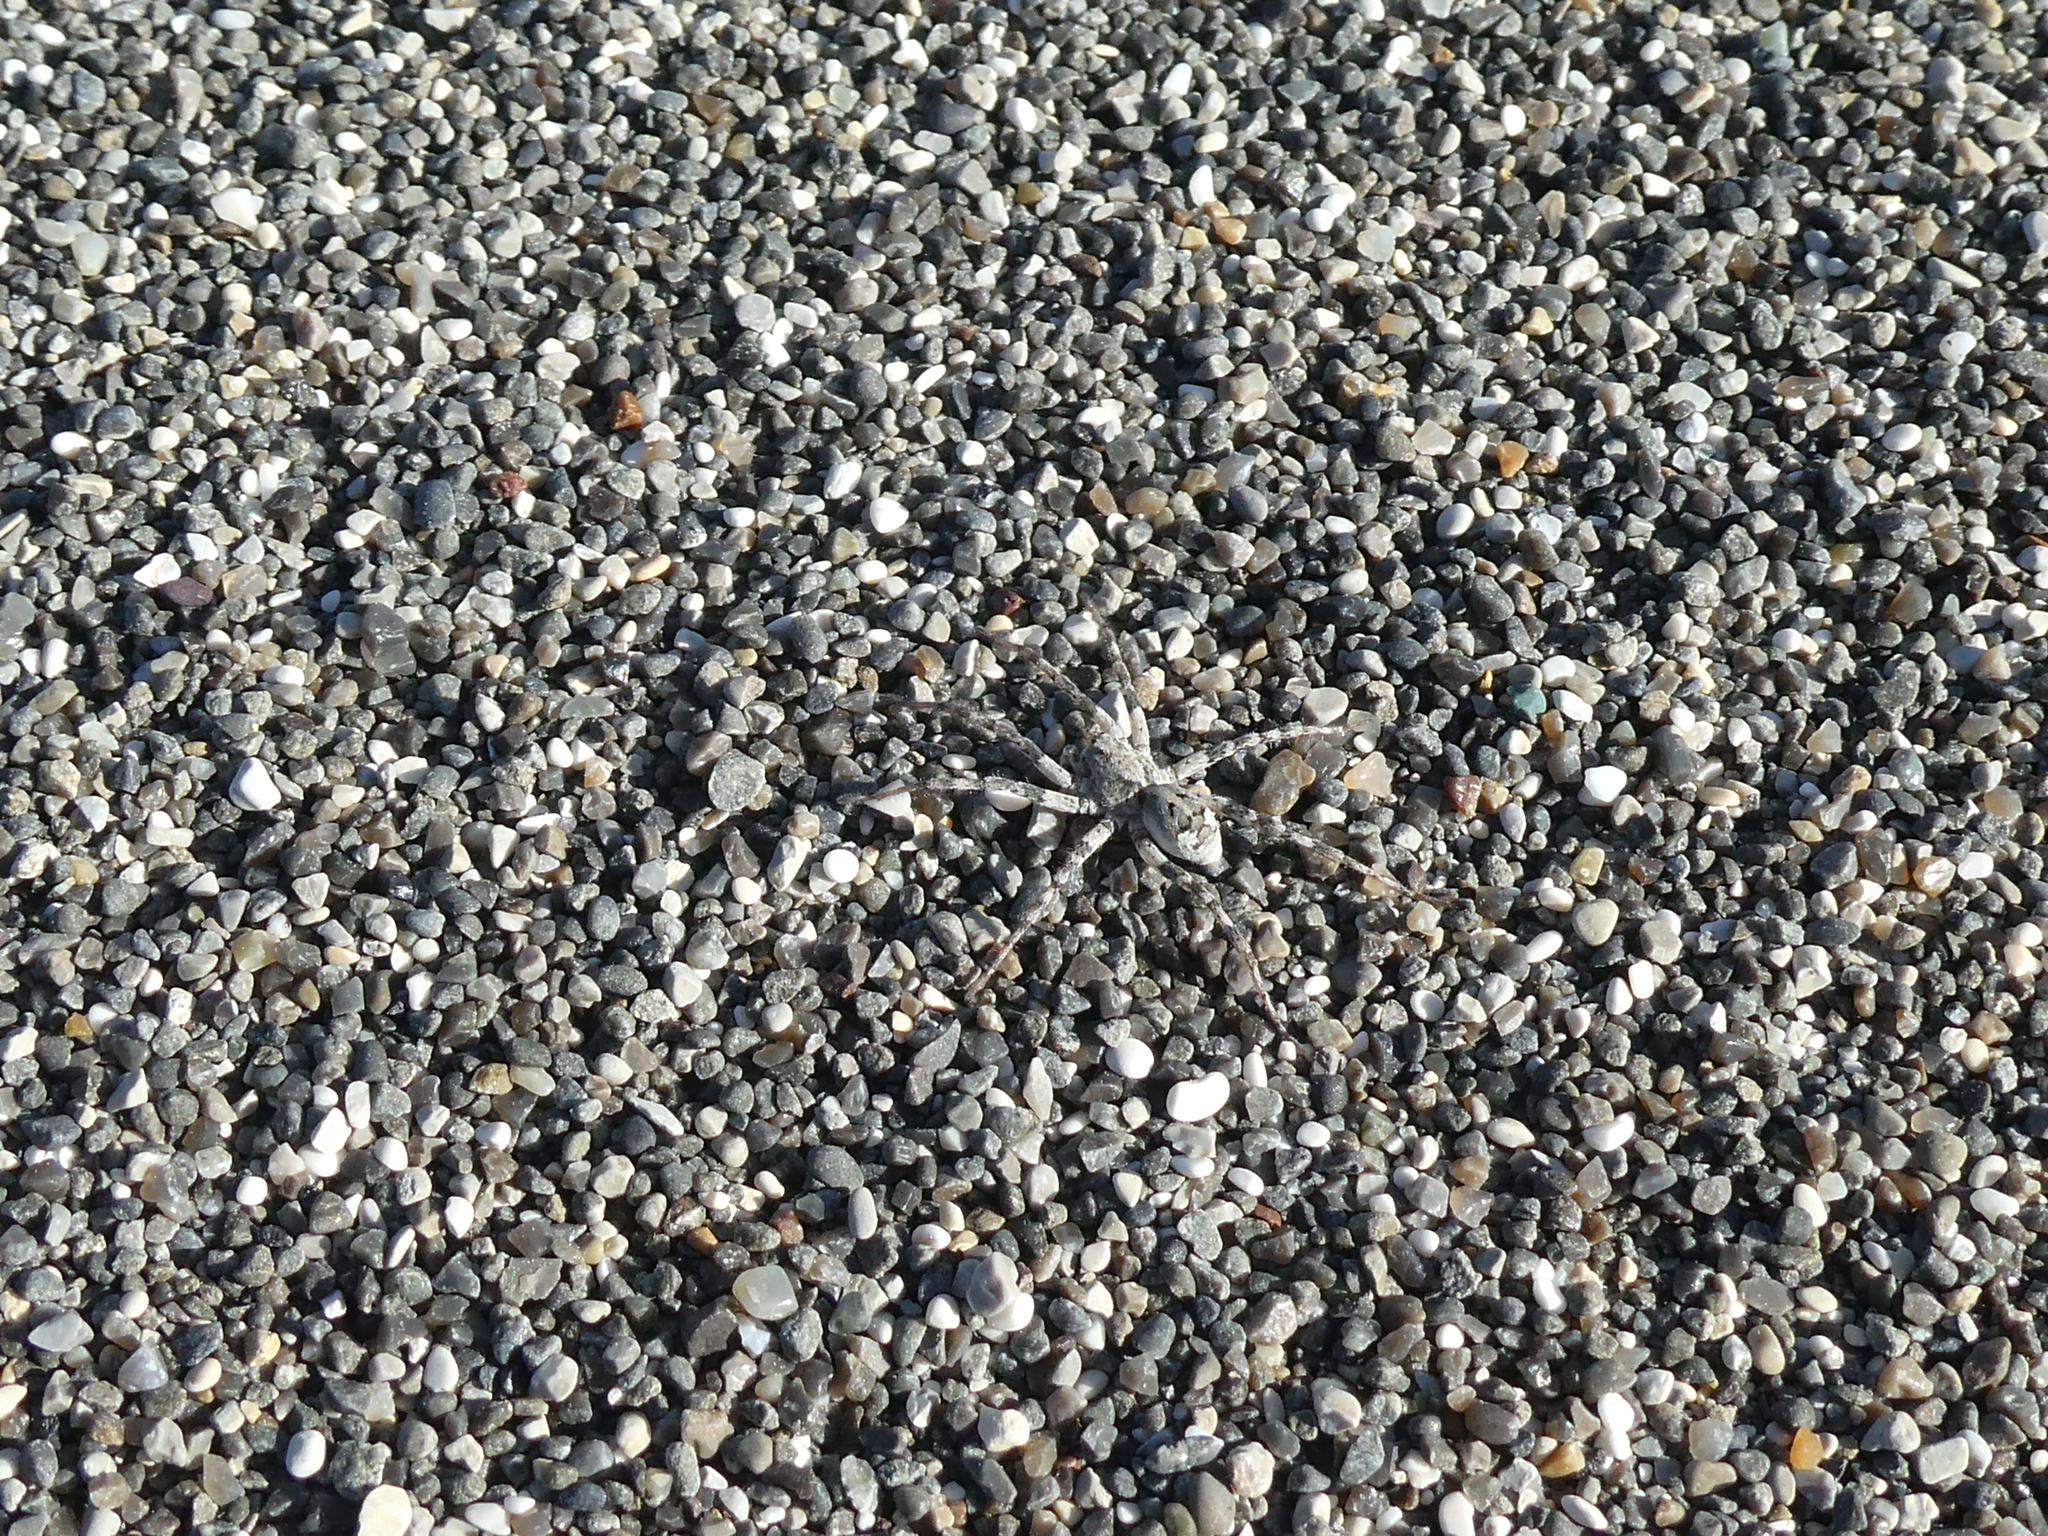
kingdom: Animalia
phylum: Arthropoda
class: Arachnida
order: Araneae
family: Lycosidae
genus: Anoteropsis
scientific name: Anoteropsis litoralis
